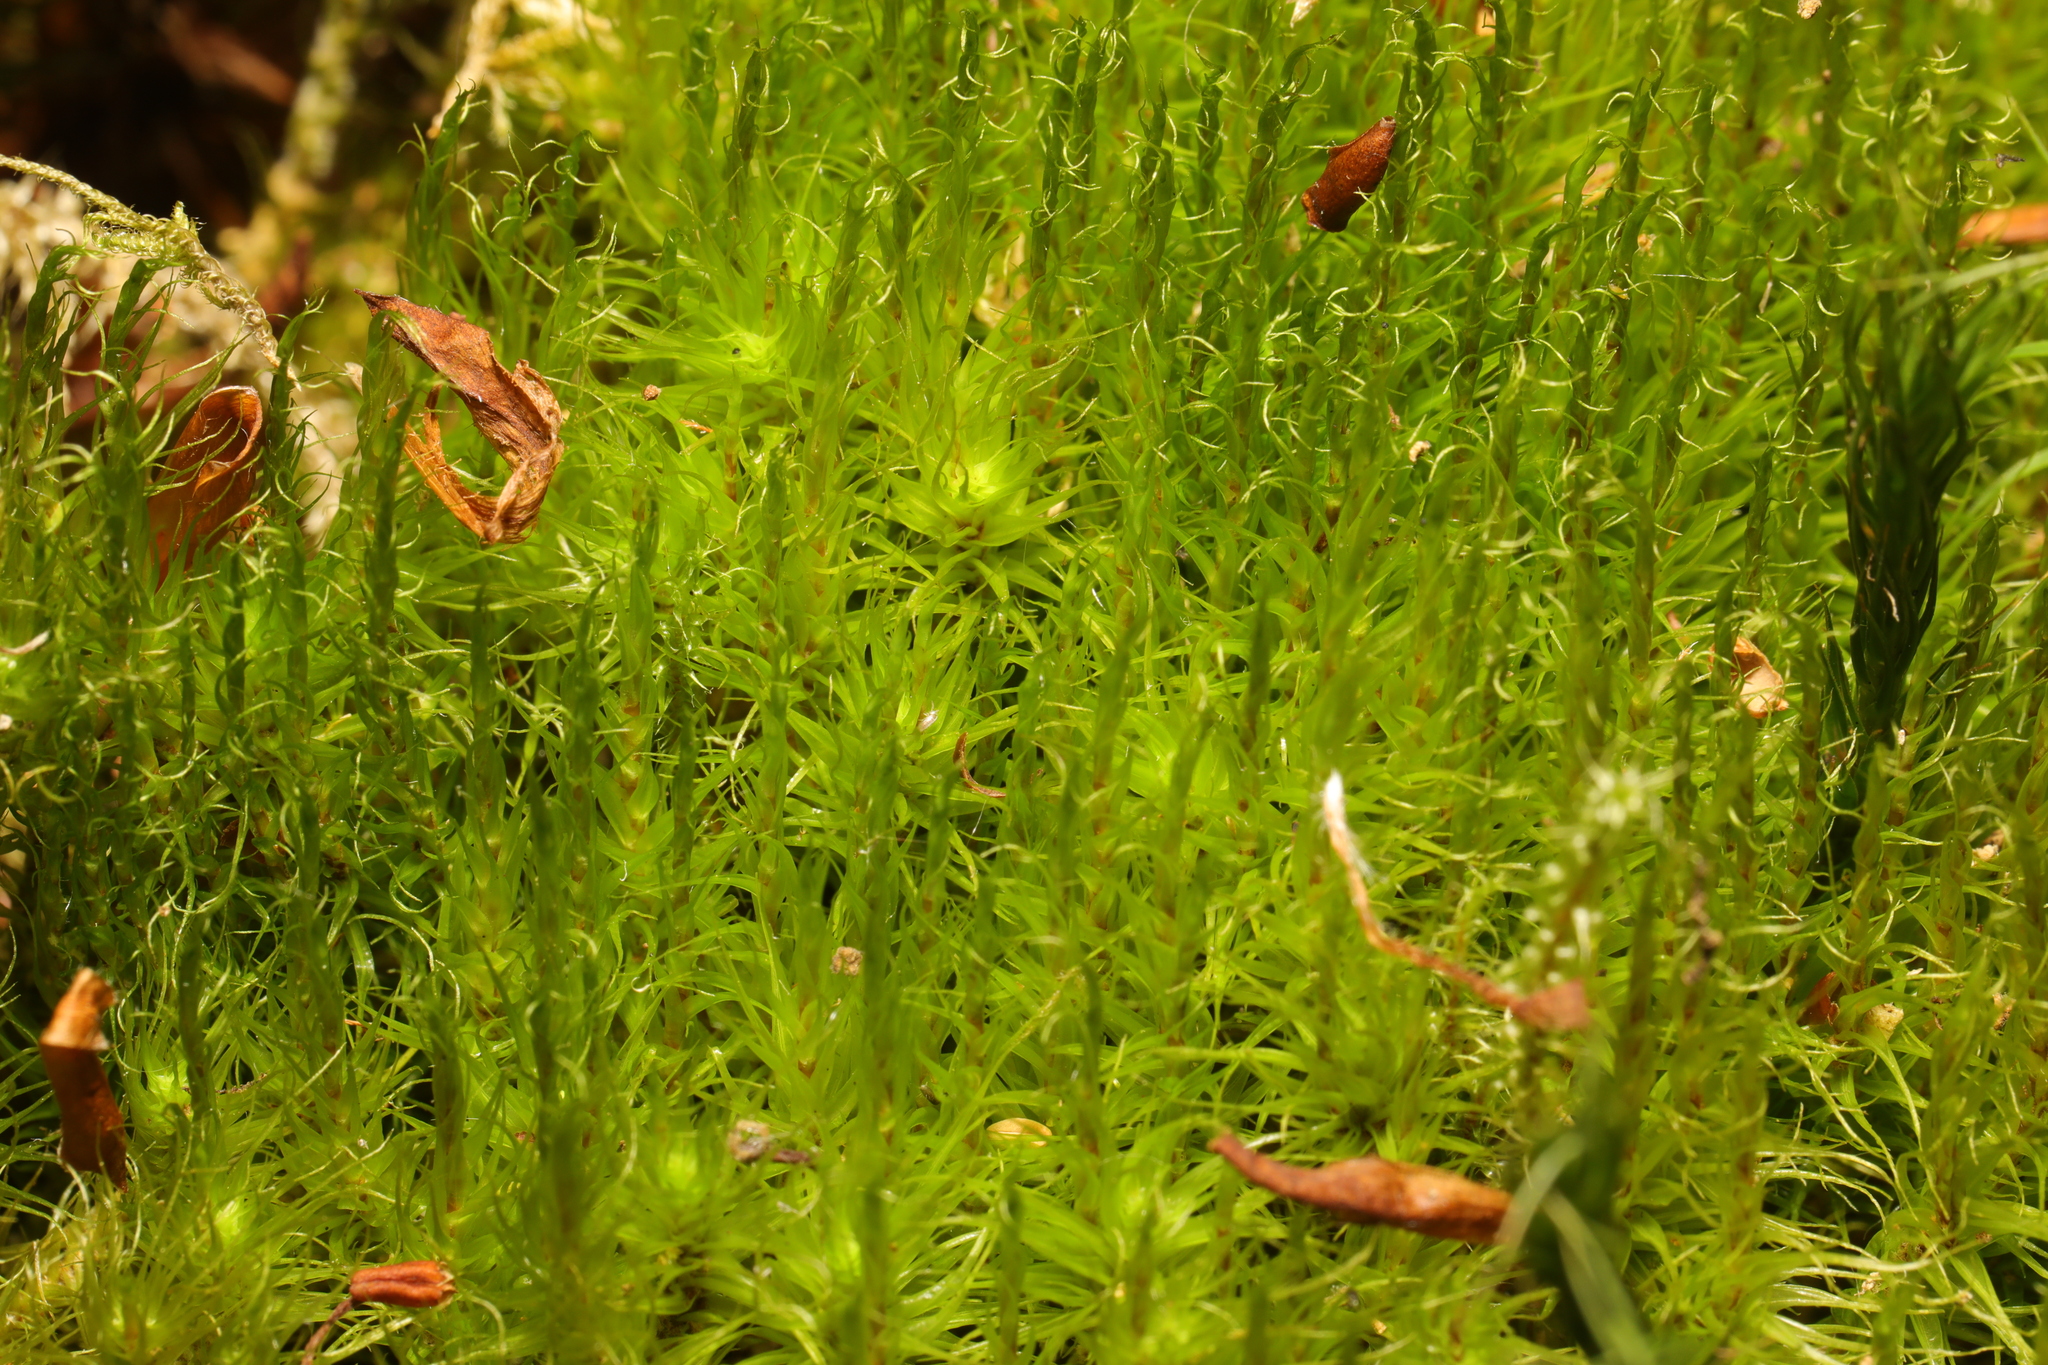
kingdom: Plantae
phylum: Bryophyta
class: Bryopsida
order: Dicranales
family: Dicranaceae
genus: Dicranum
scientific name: Dicranum scoparium
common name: Broom fork-moss
